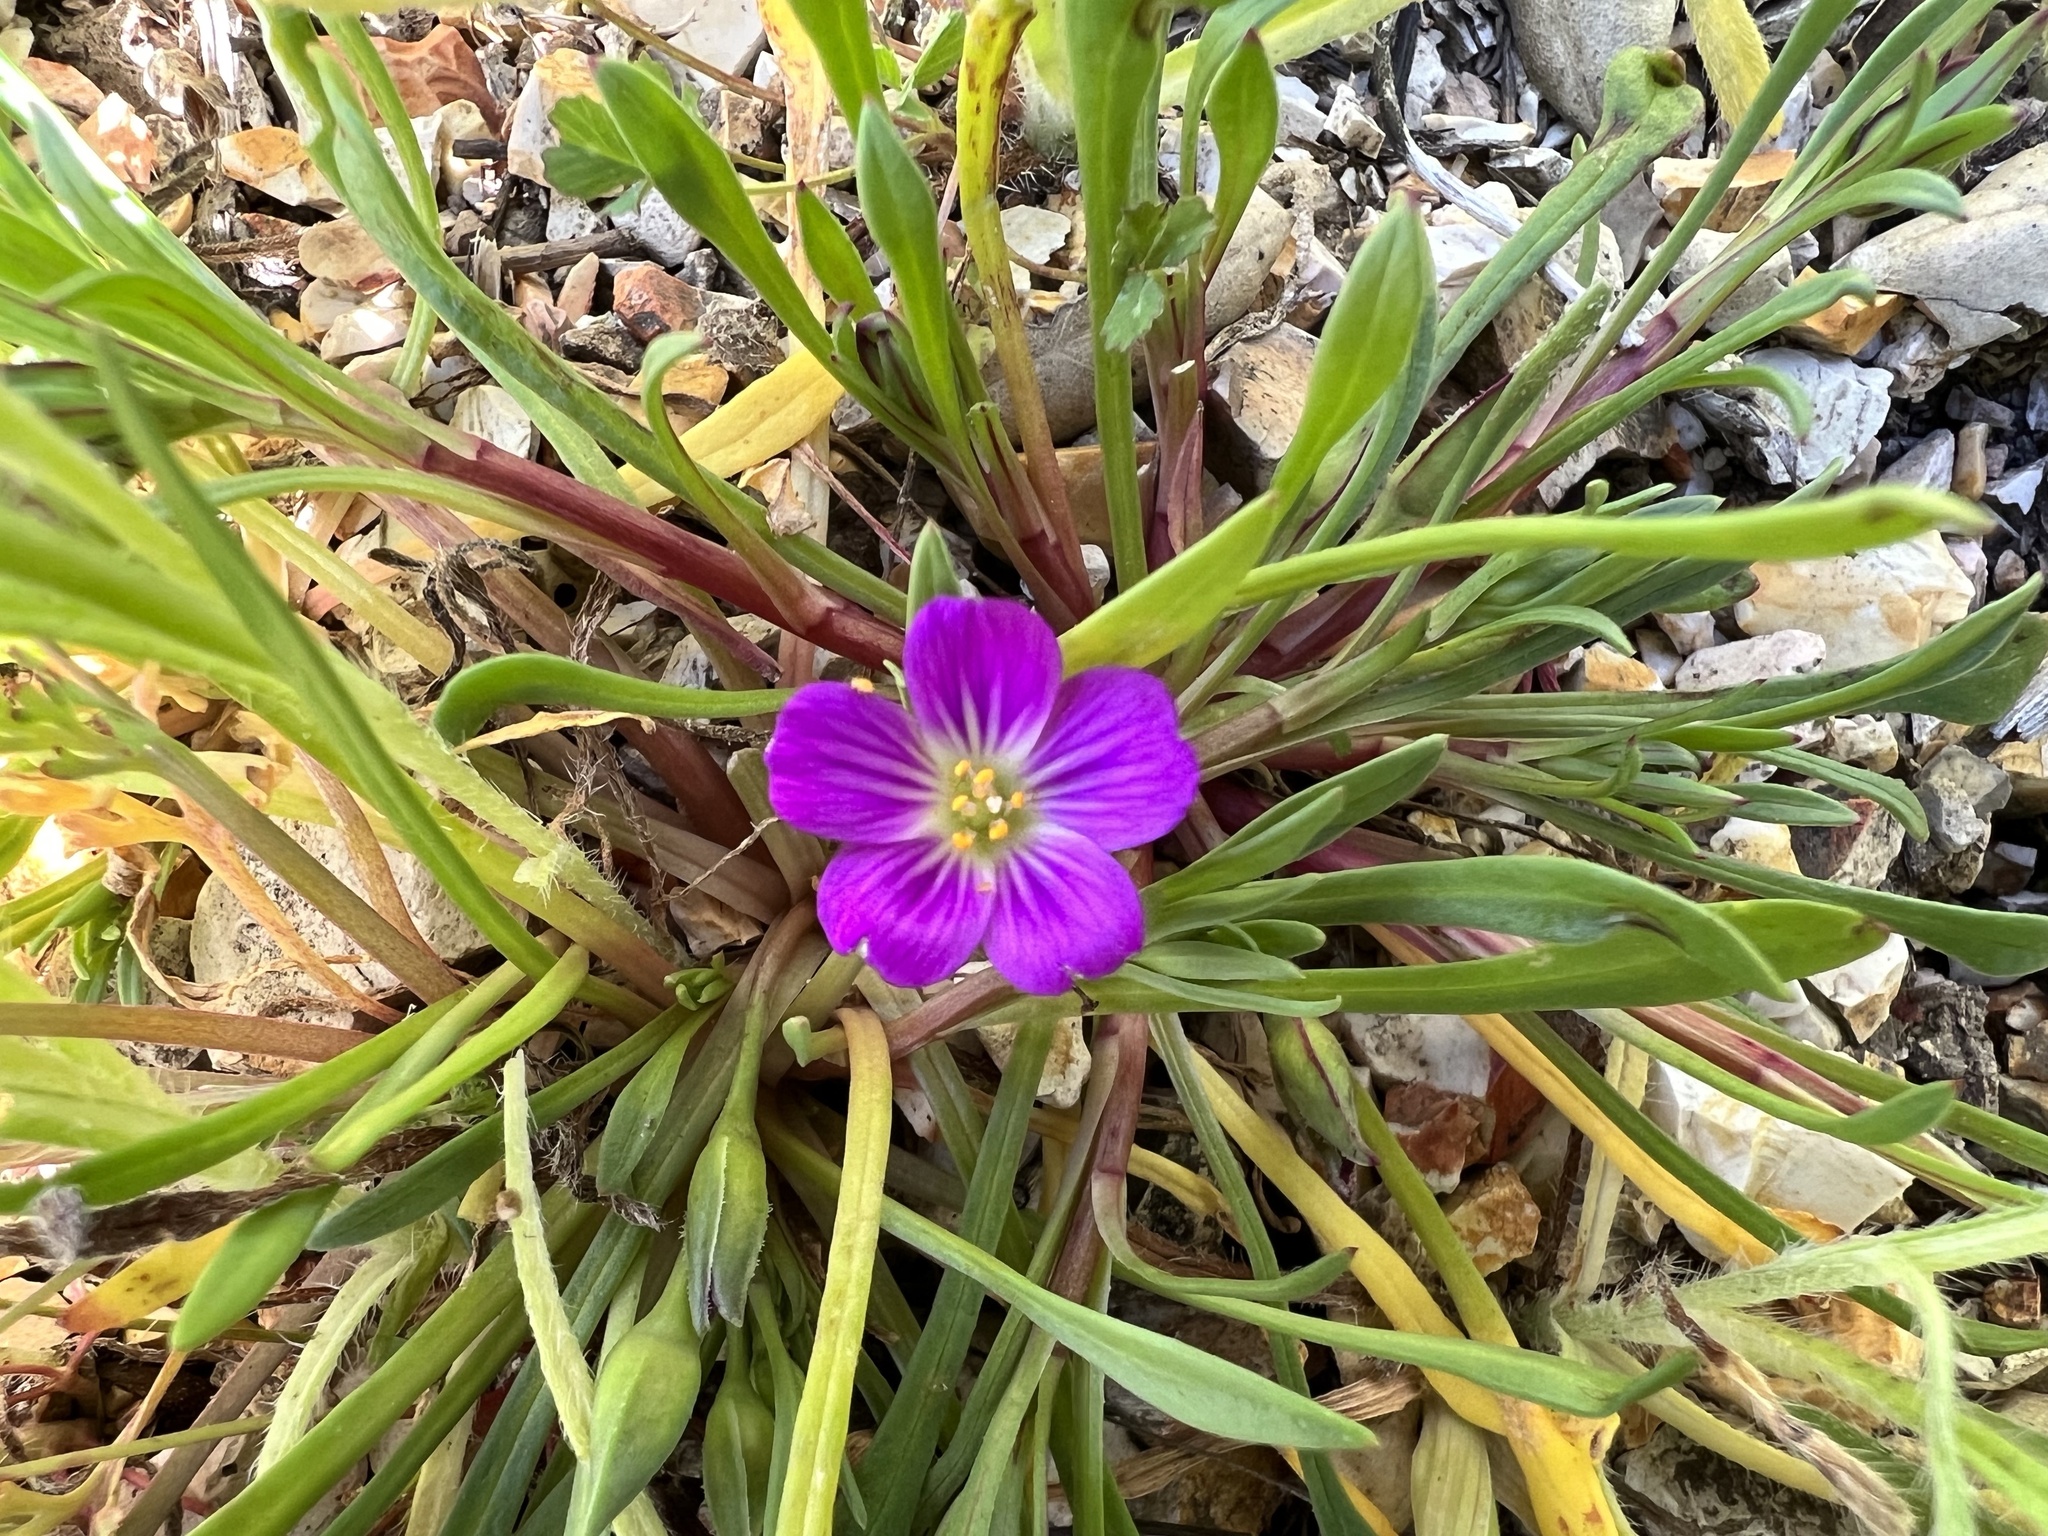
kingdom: Plantae
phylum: Tracheophyta
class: Magnoliopsida
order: Caryophyllales
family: Montiaceae
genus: Calandrinia
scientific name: Calandrinia menziesii
